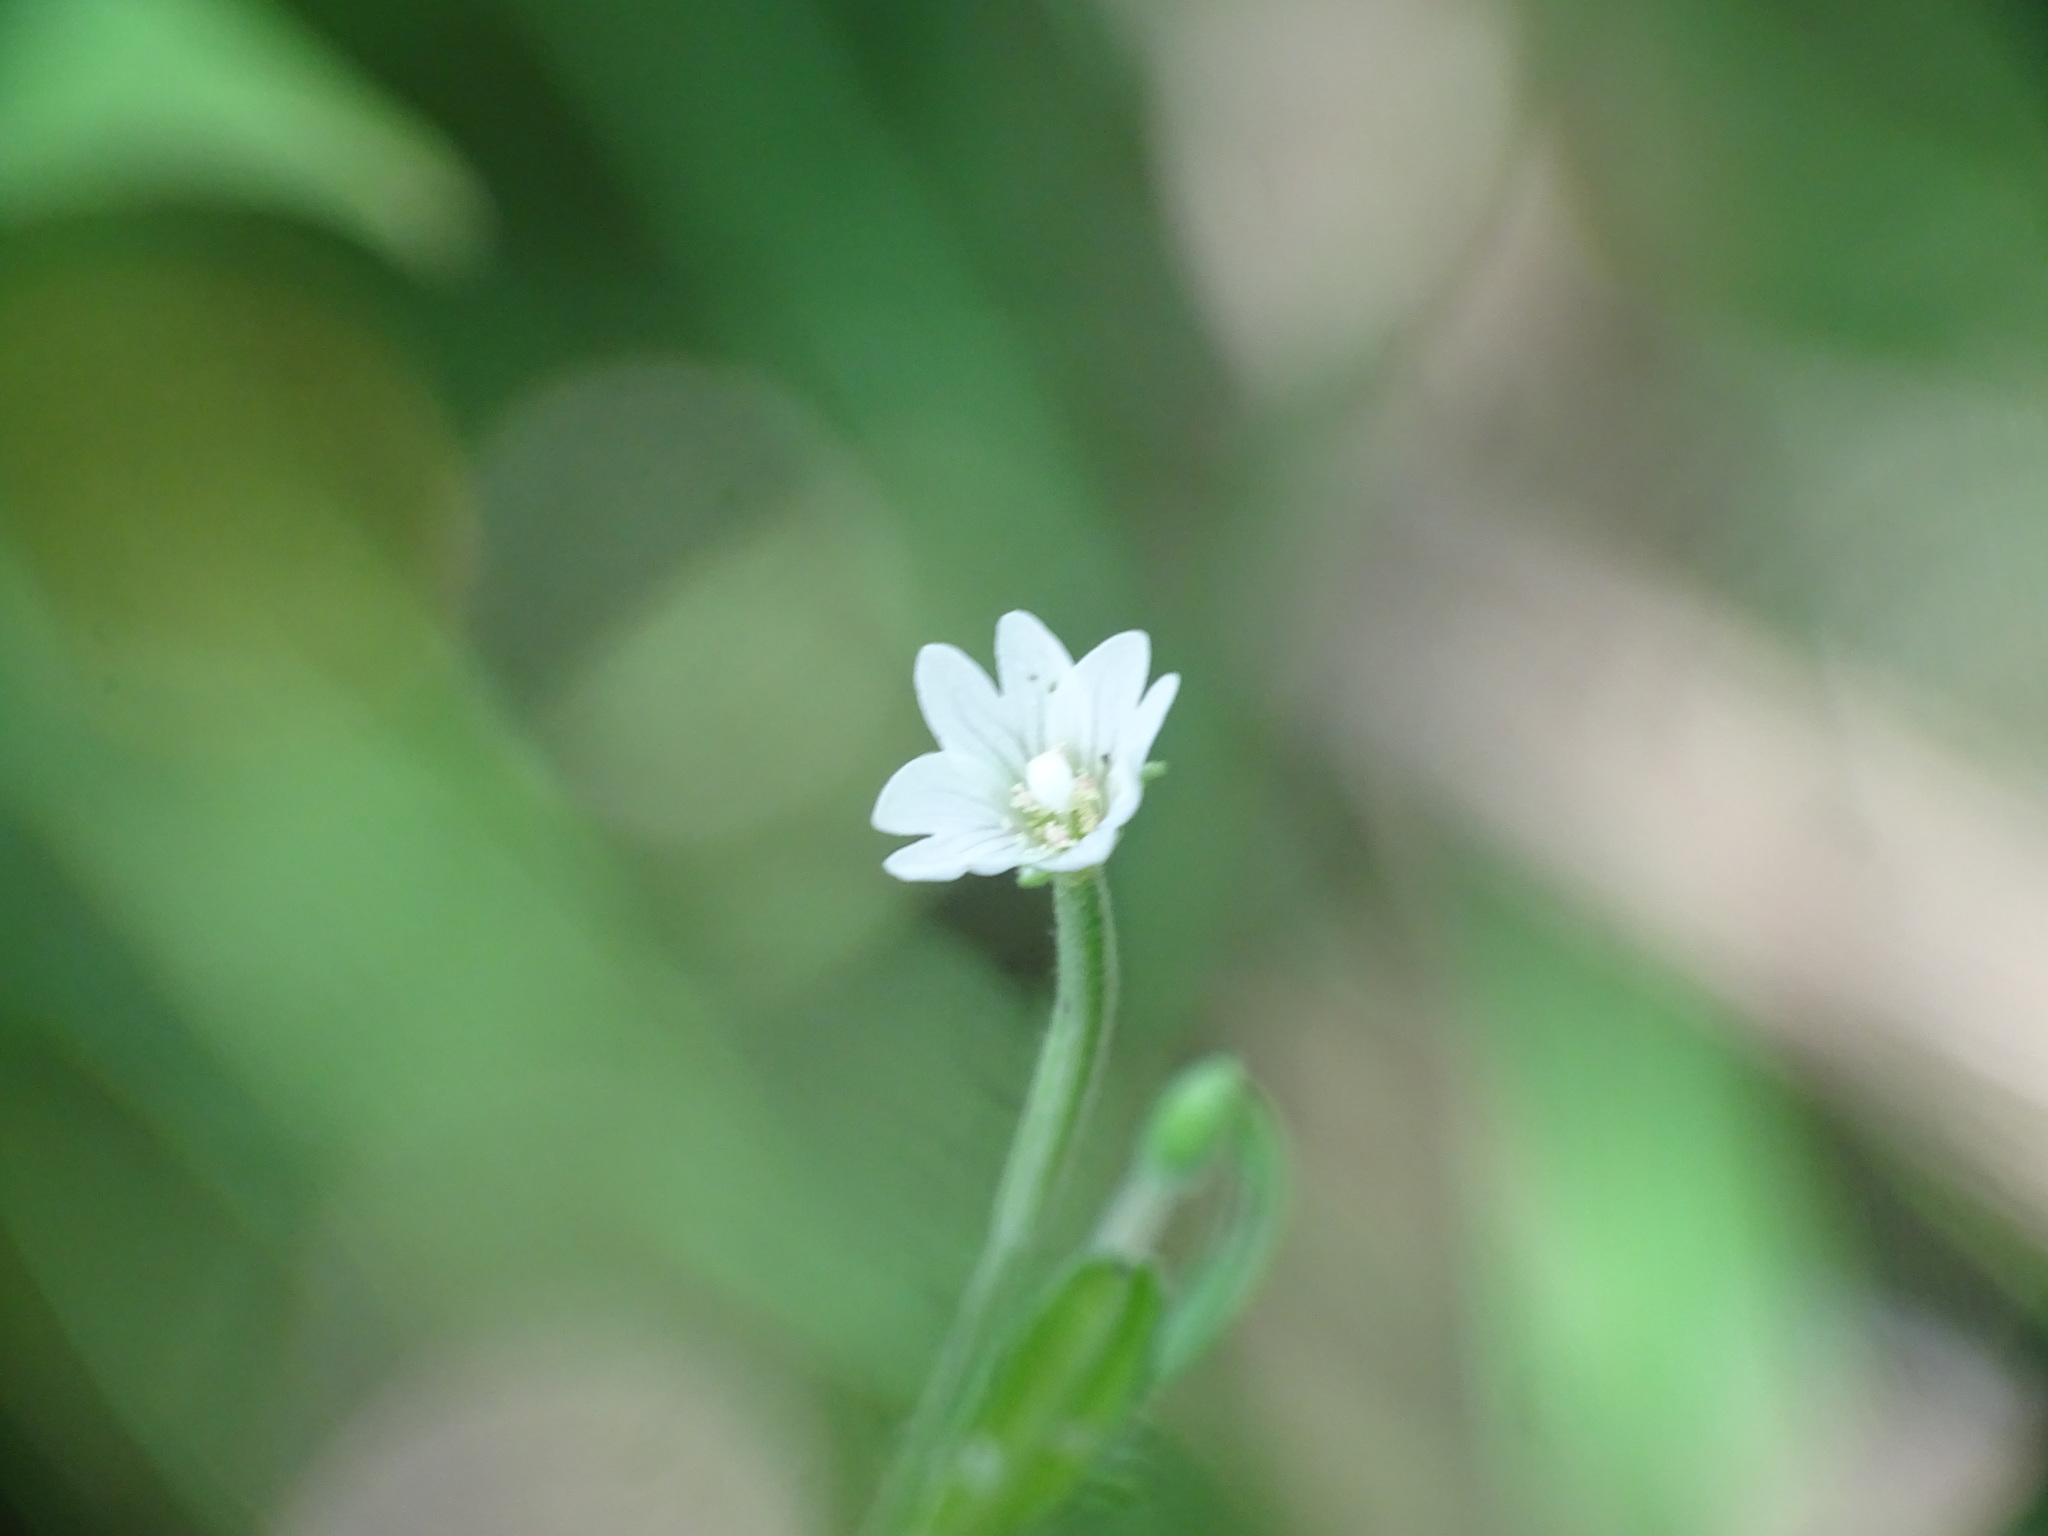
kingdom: Plantae
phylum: Tracheophyta
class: Magnoliopsida
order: Myrtales
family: Onagraceae
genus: Epilobium
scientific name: Epilobium leptophyllum
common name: Bog willowherb
